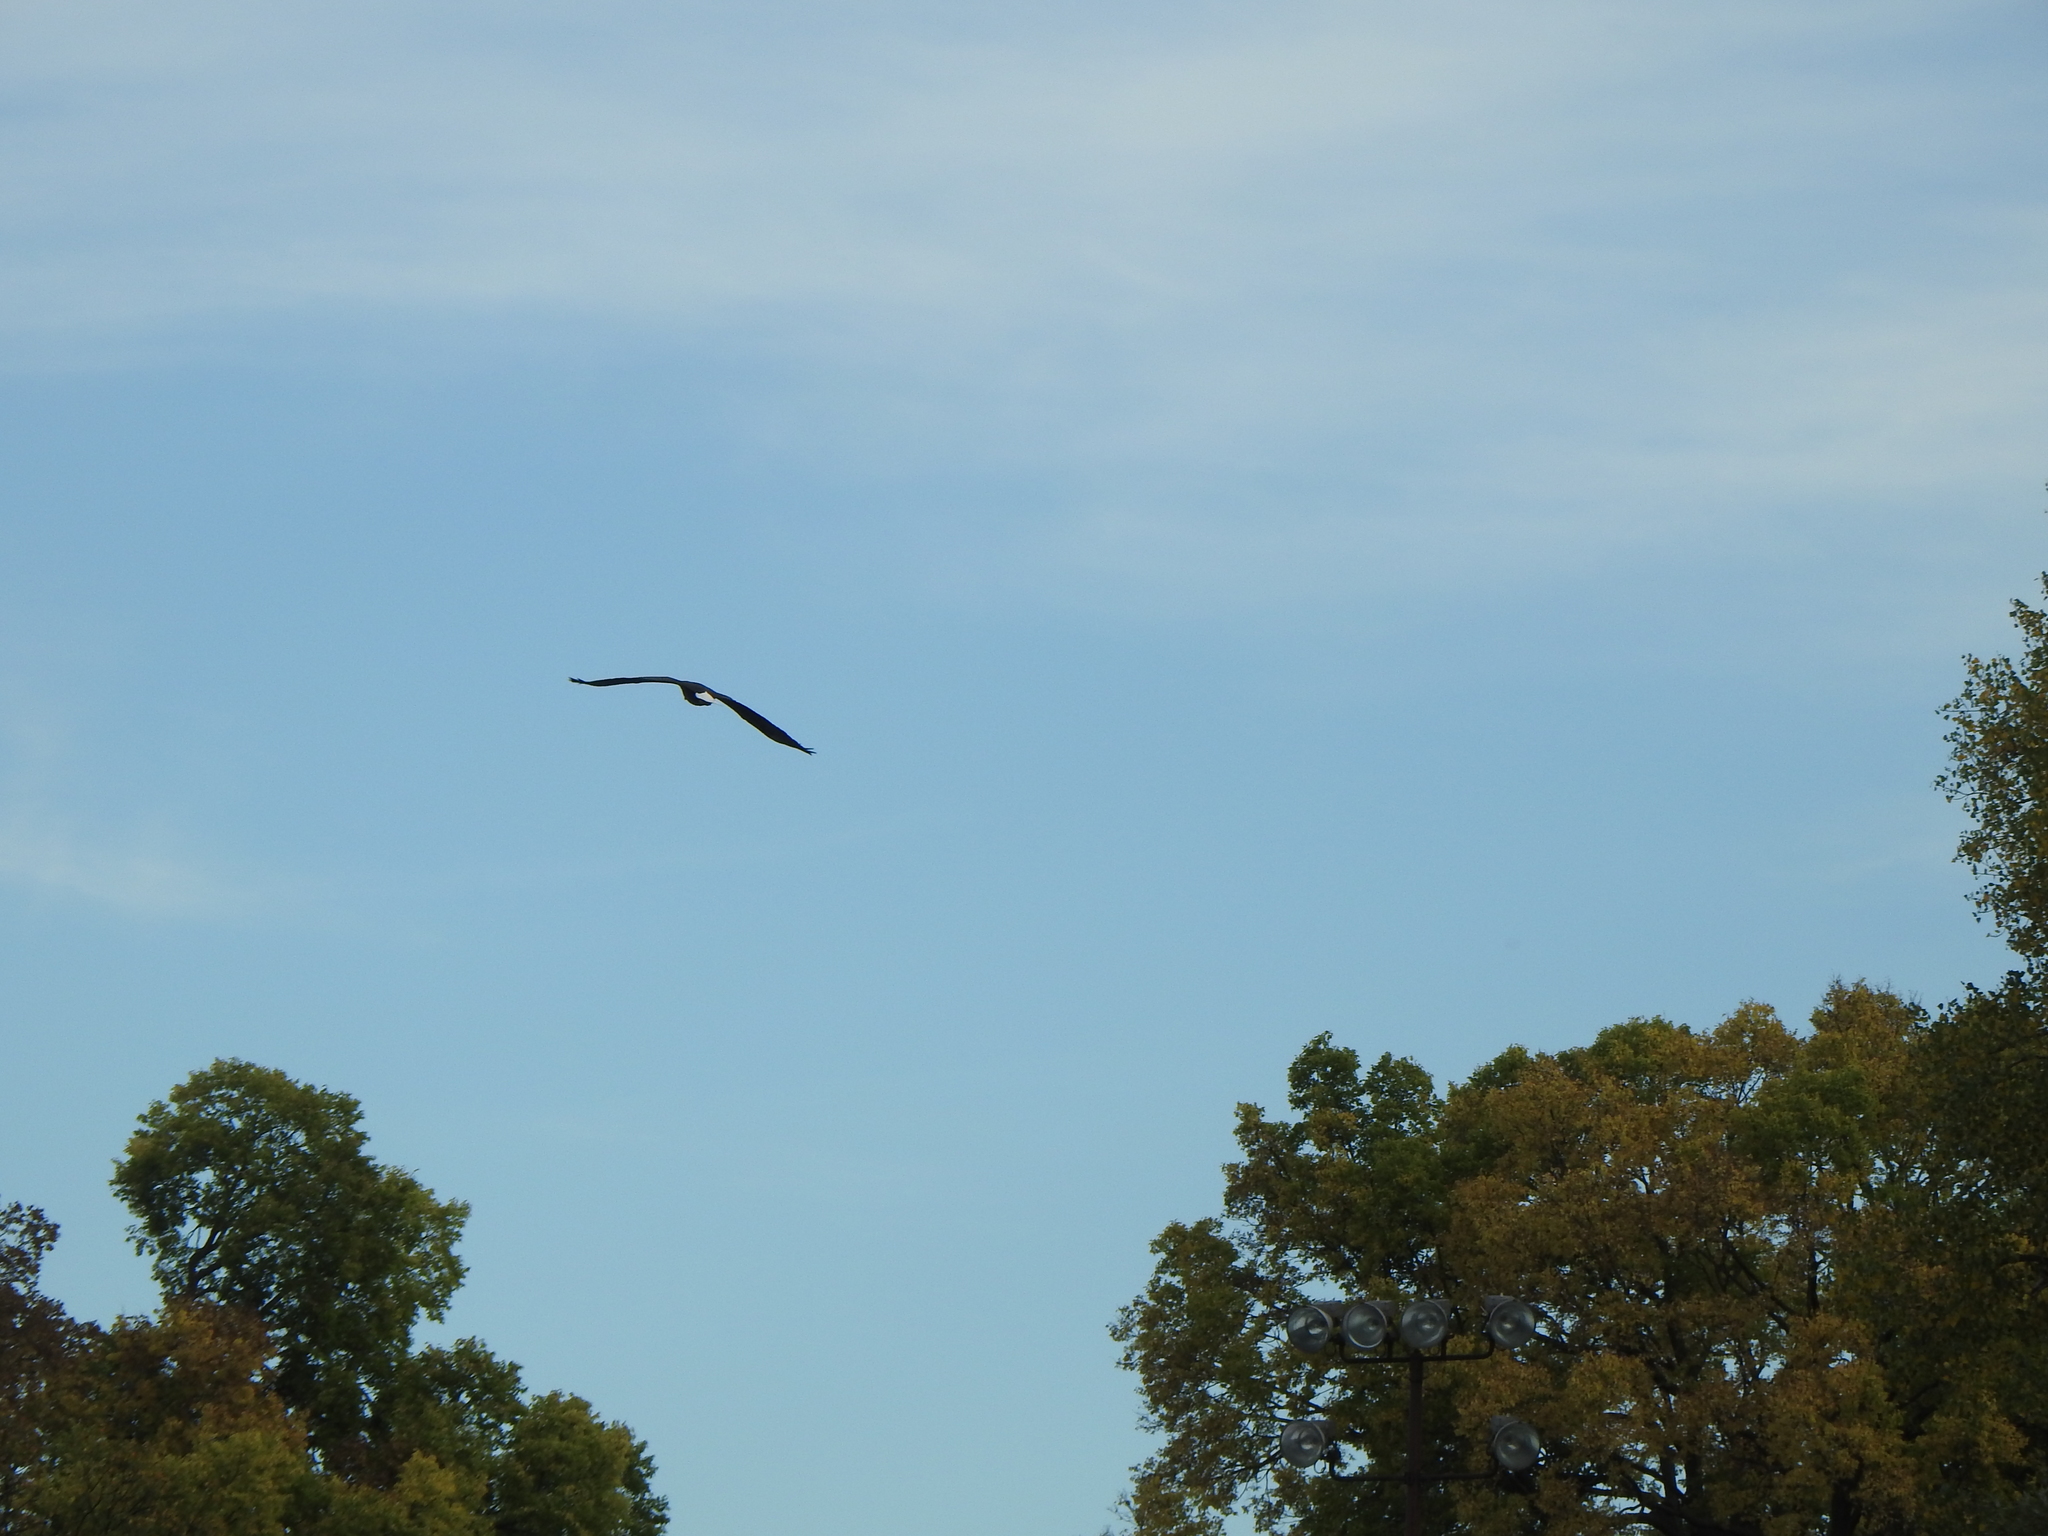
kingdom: Animalia
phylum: Chordata
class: Aves
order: Accipitriformes
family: Accipitridae
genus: Haliaeetus
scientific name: Haliaeetus leucocephalus
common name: Bald eagle
